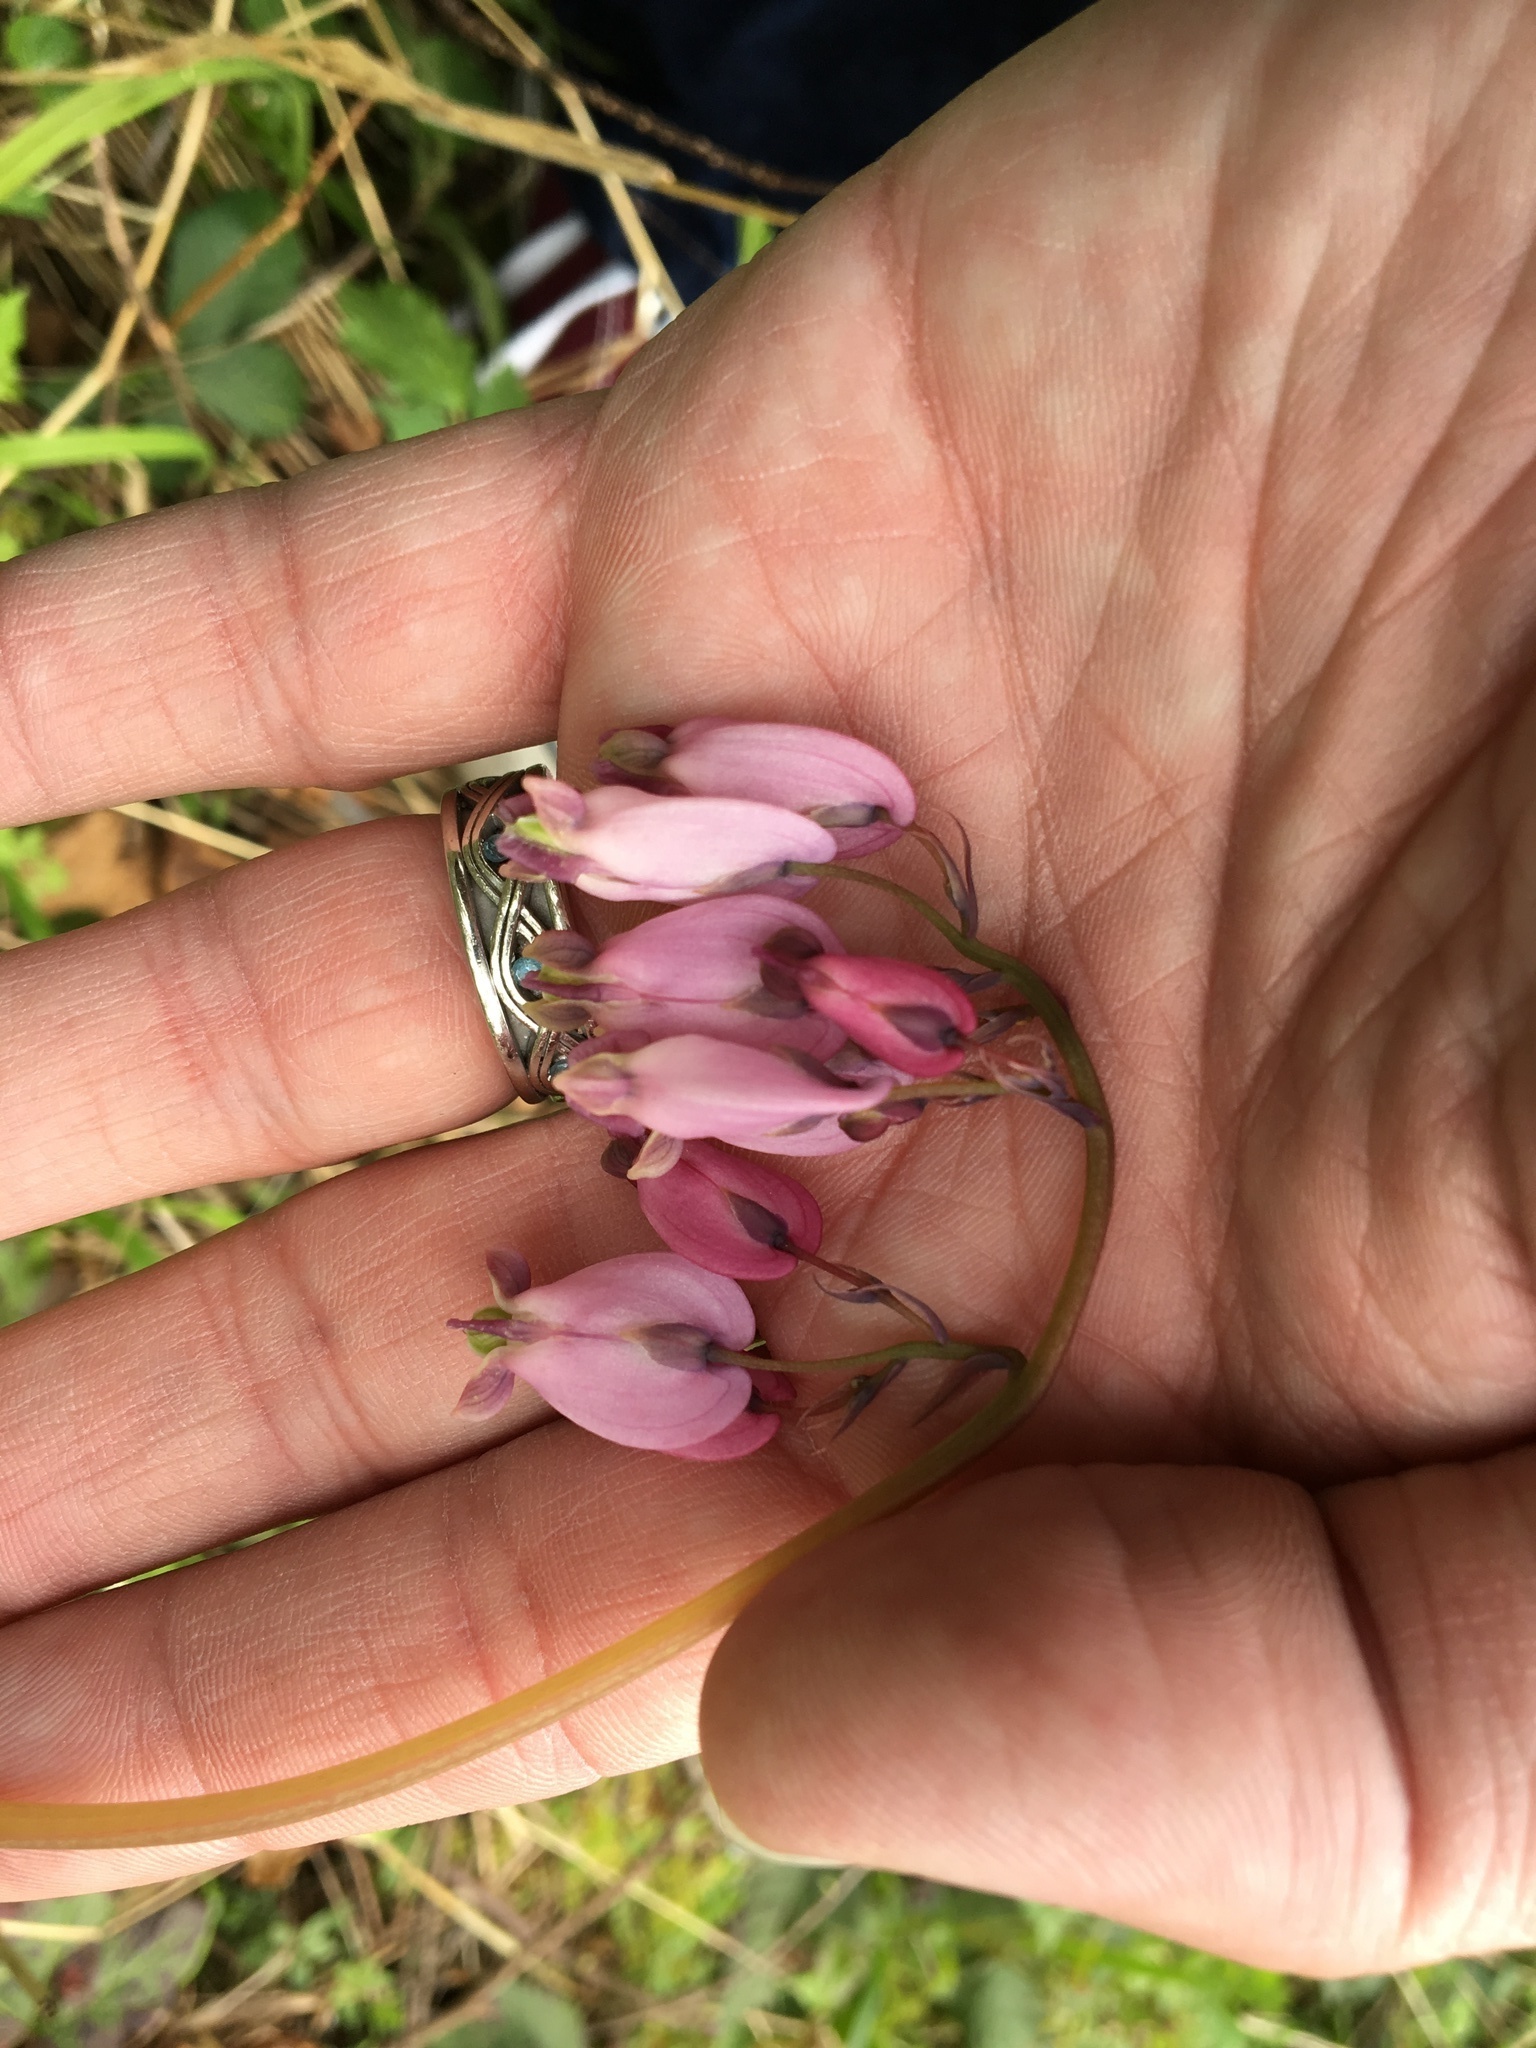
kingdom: Plantae
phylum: Tracheophyta
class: Magnoliopsida
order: Ranunculales
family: Papaveraceae
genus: Dicentra
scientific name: Dicentra formosa
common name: Bleeding-heart
